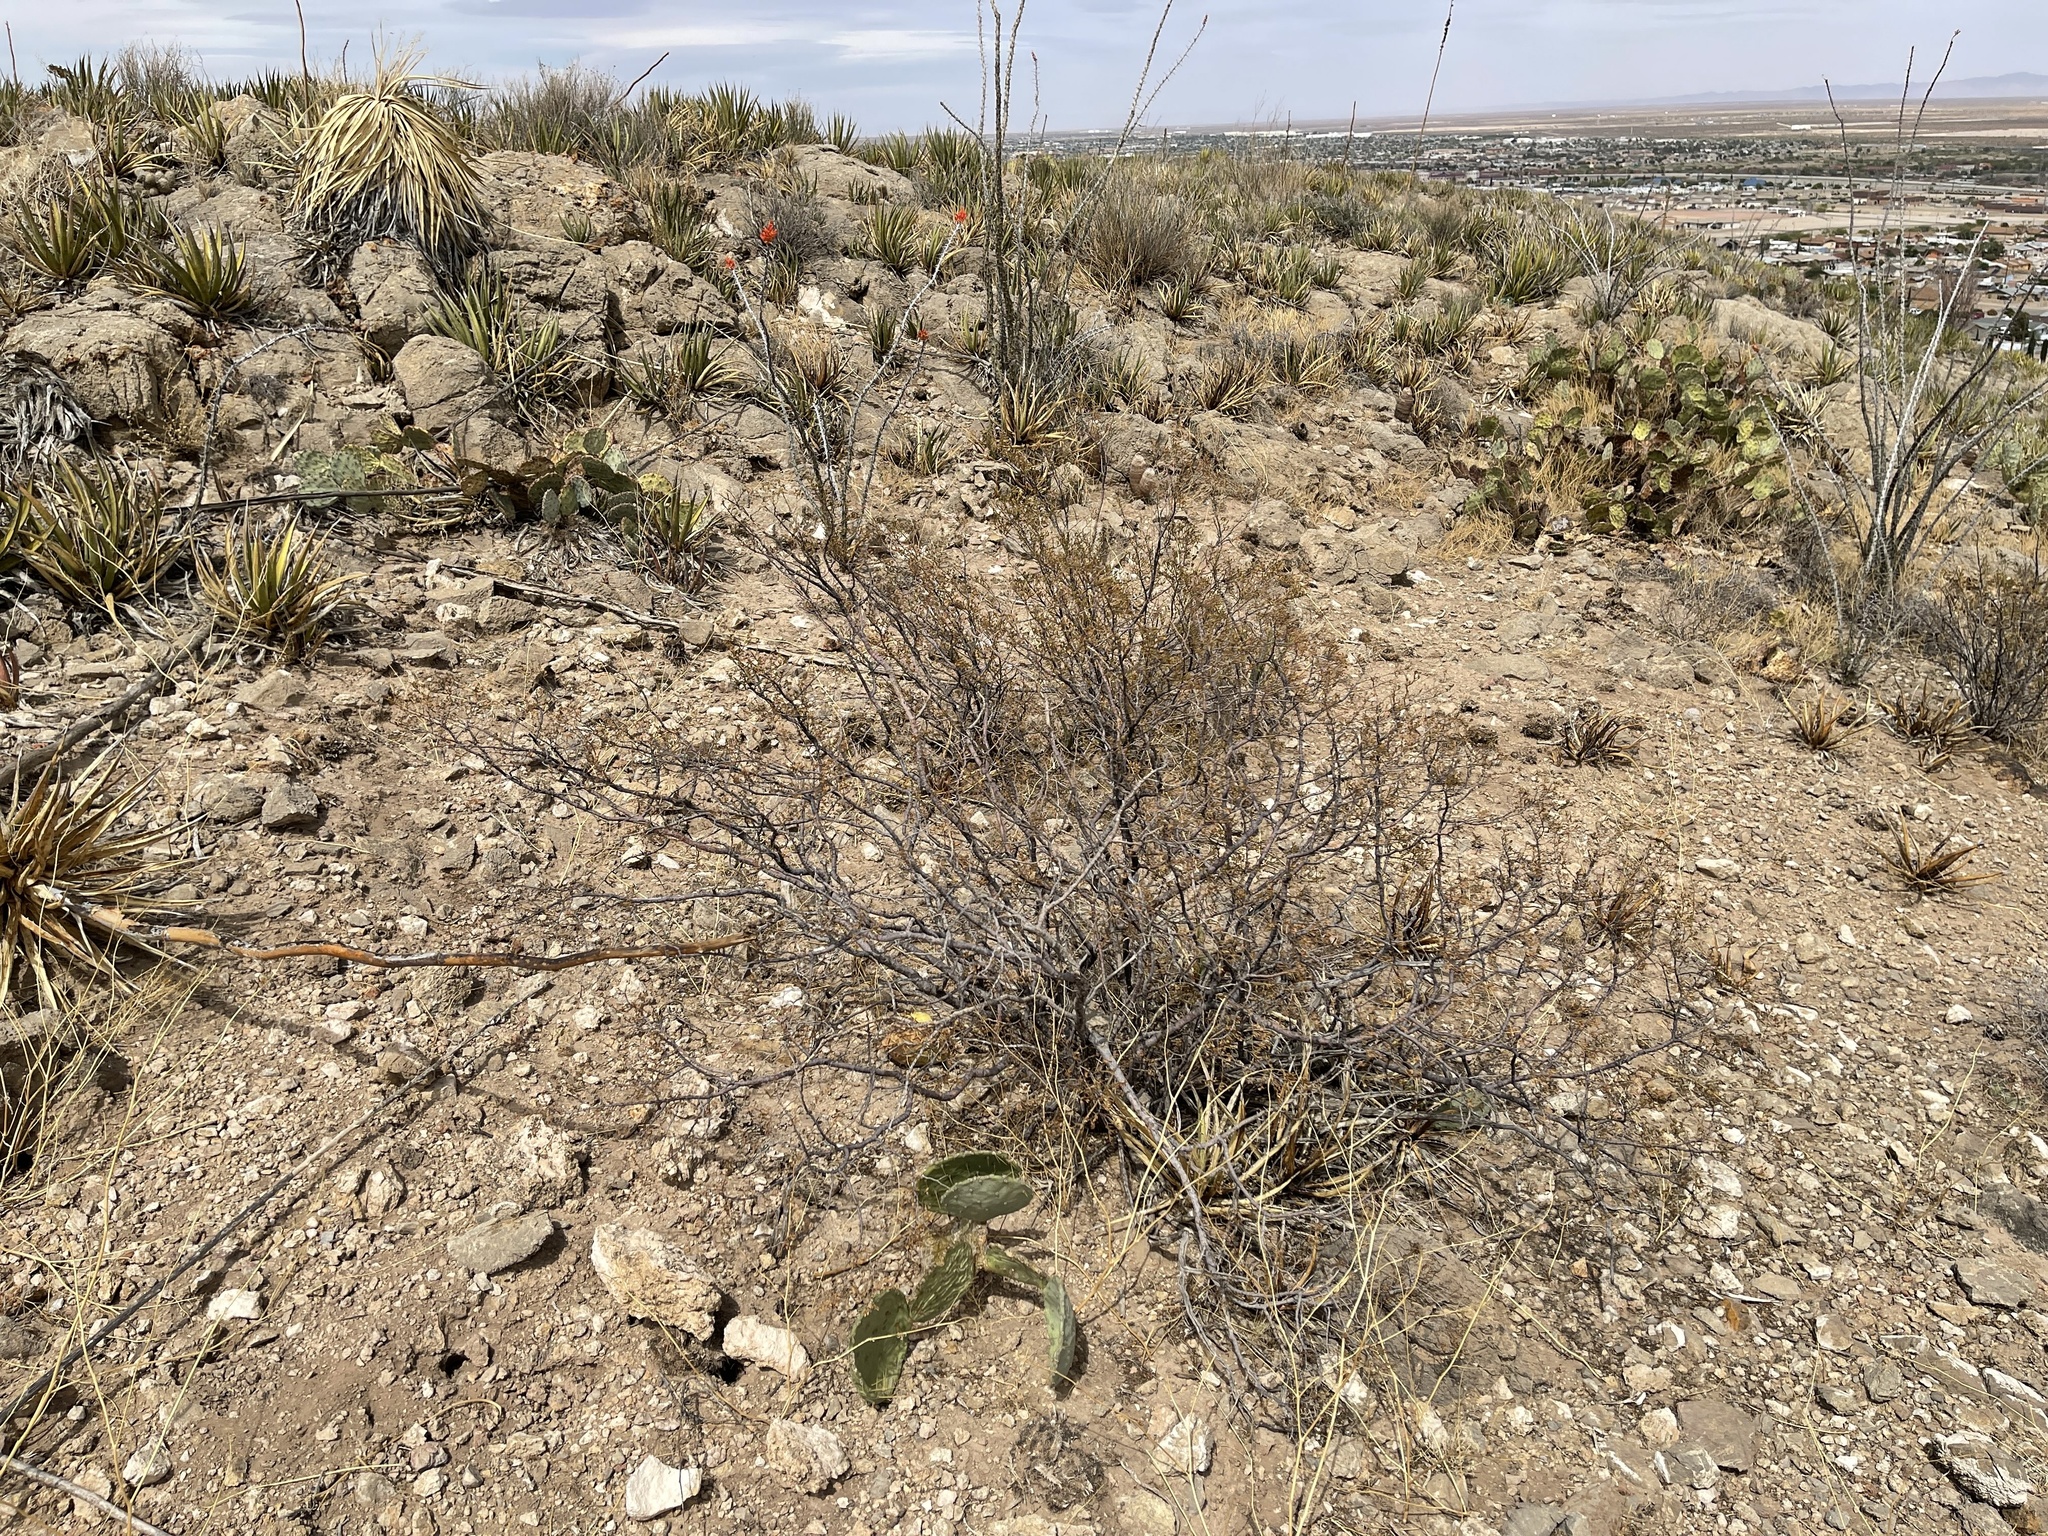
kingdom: Plantae
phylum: Tracheophyta
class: Magnoliopsida
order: Zygophyllales
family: Zygophyllaceae
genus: Larrea
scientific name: Larrea tridentata
